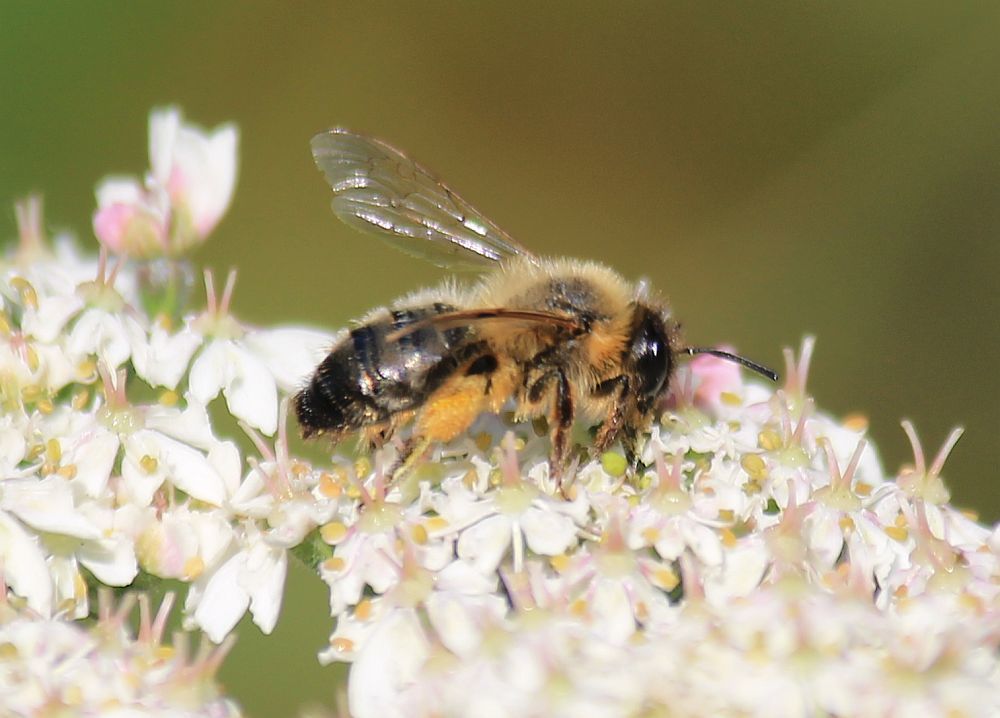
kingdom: Animalia
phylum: Arthropoda
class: Insecta
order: Hymenoptera
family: Andrenidae
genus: Andrena
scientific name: Andrena nigroaenea
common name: Buffish mining bee
